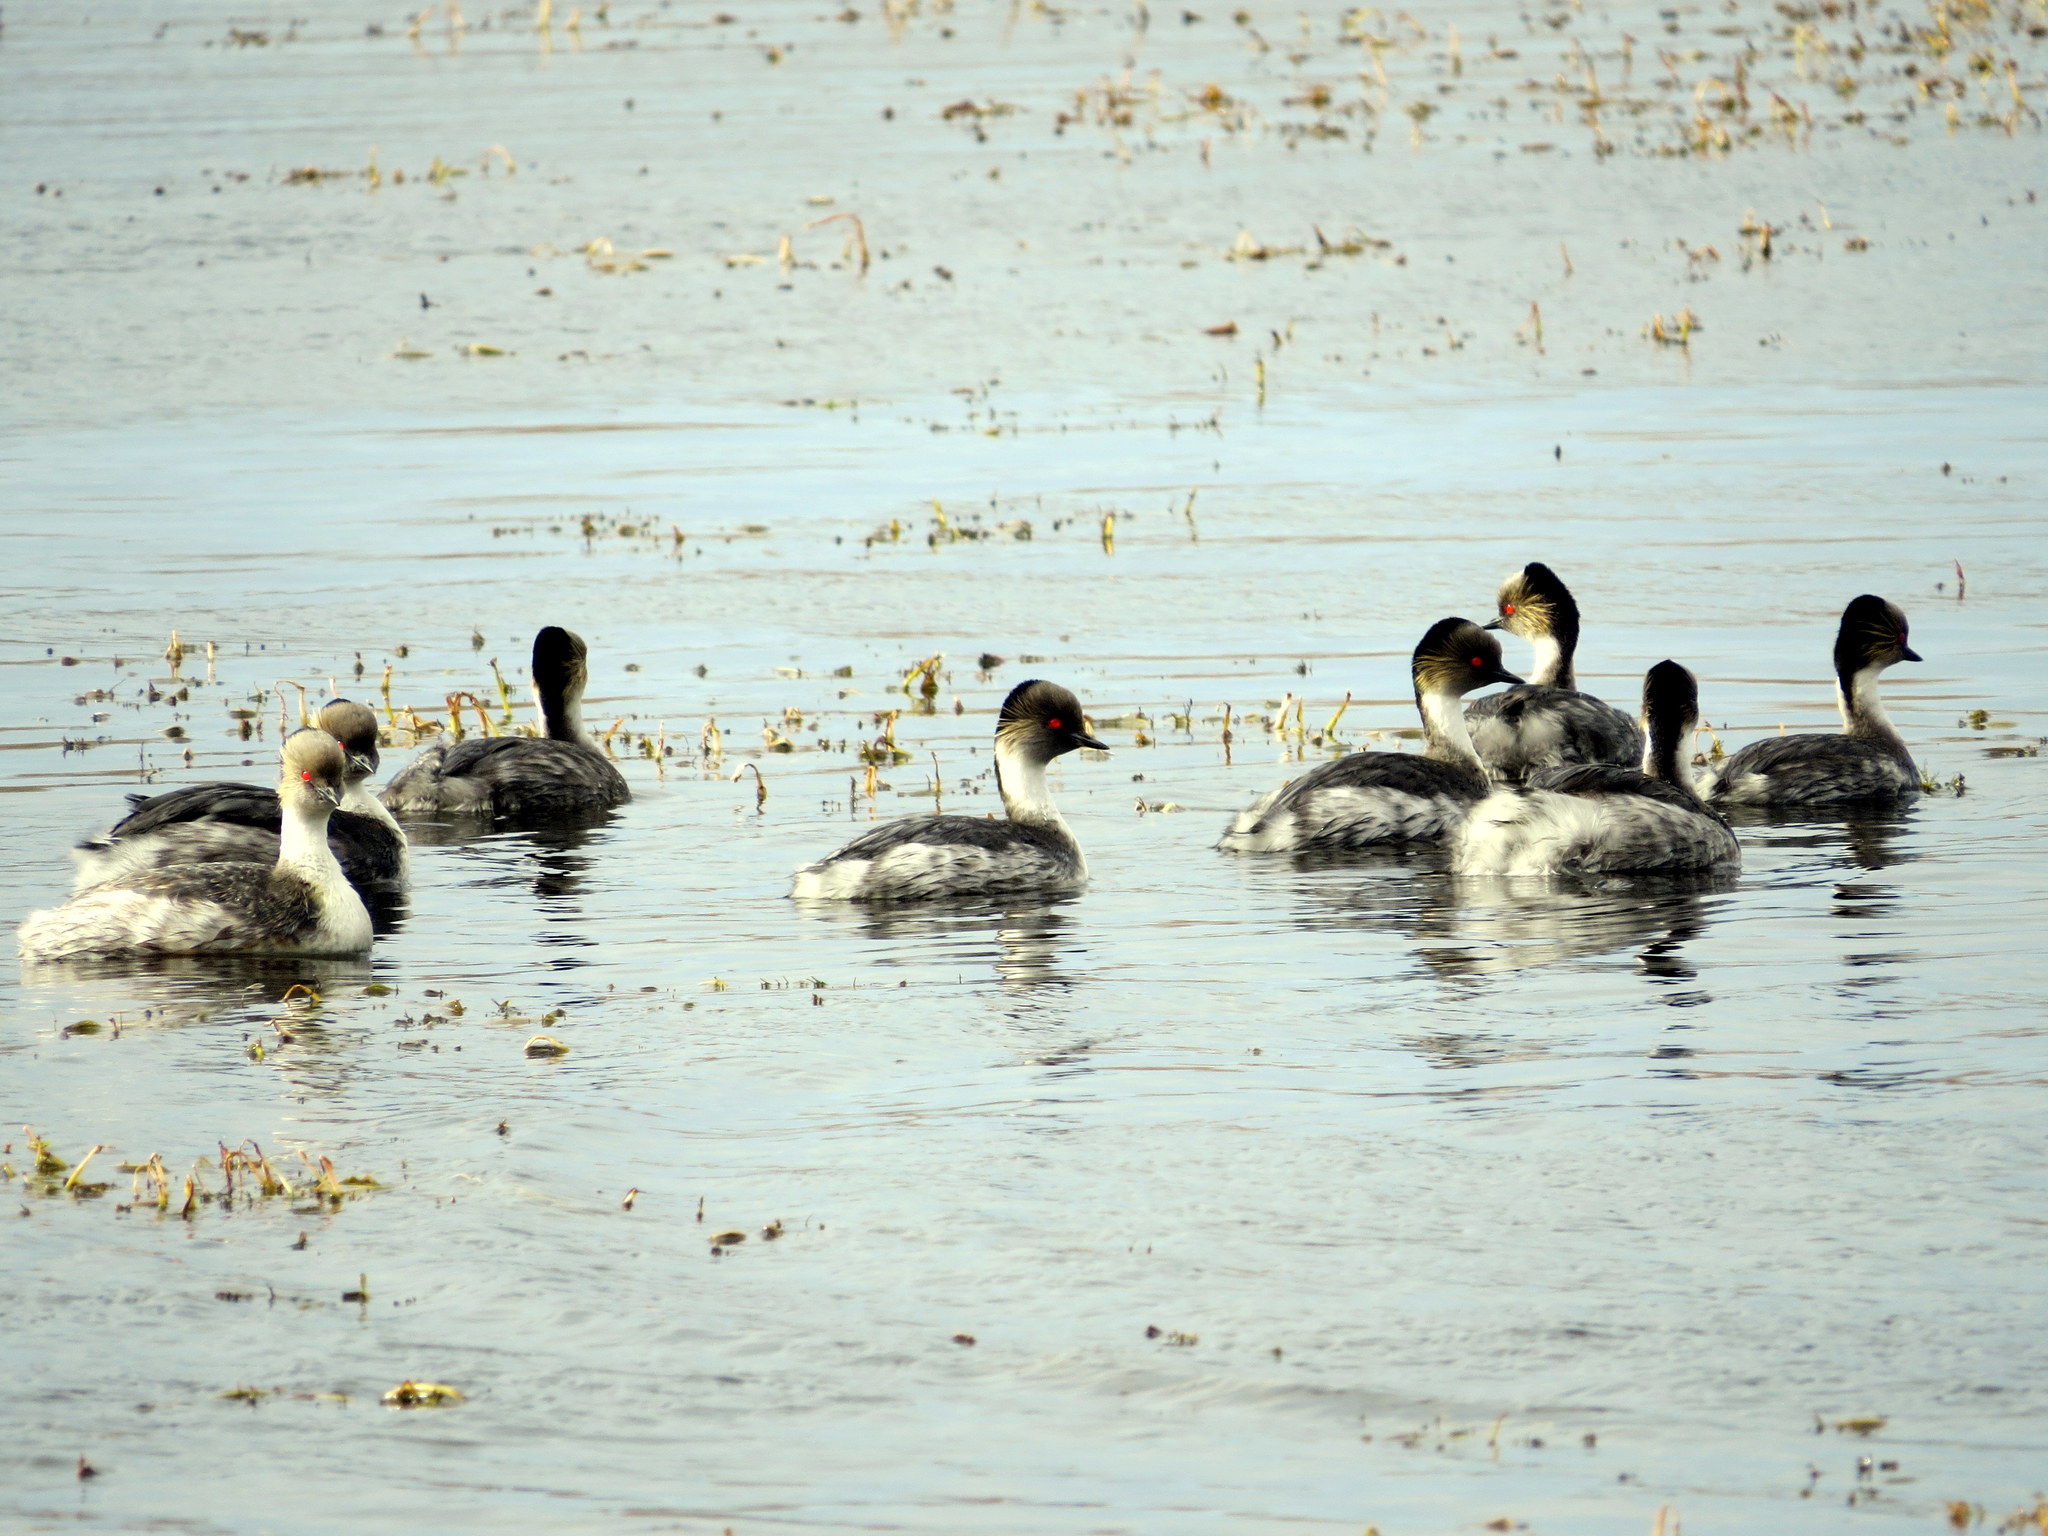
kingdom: Animalia
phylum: Chordata
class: Aves
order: Podicipediformes
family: Podicipedidae
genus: Podiceps
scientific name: Podiceps occipitalis
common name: Silvery grebe
